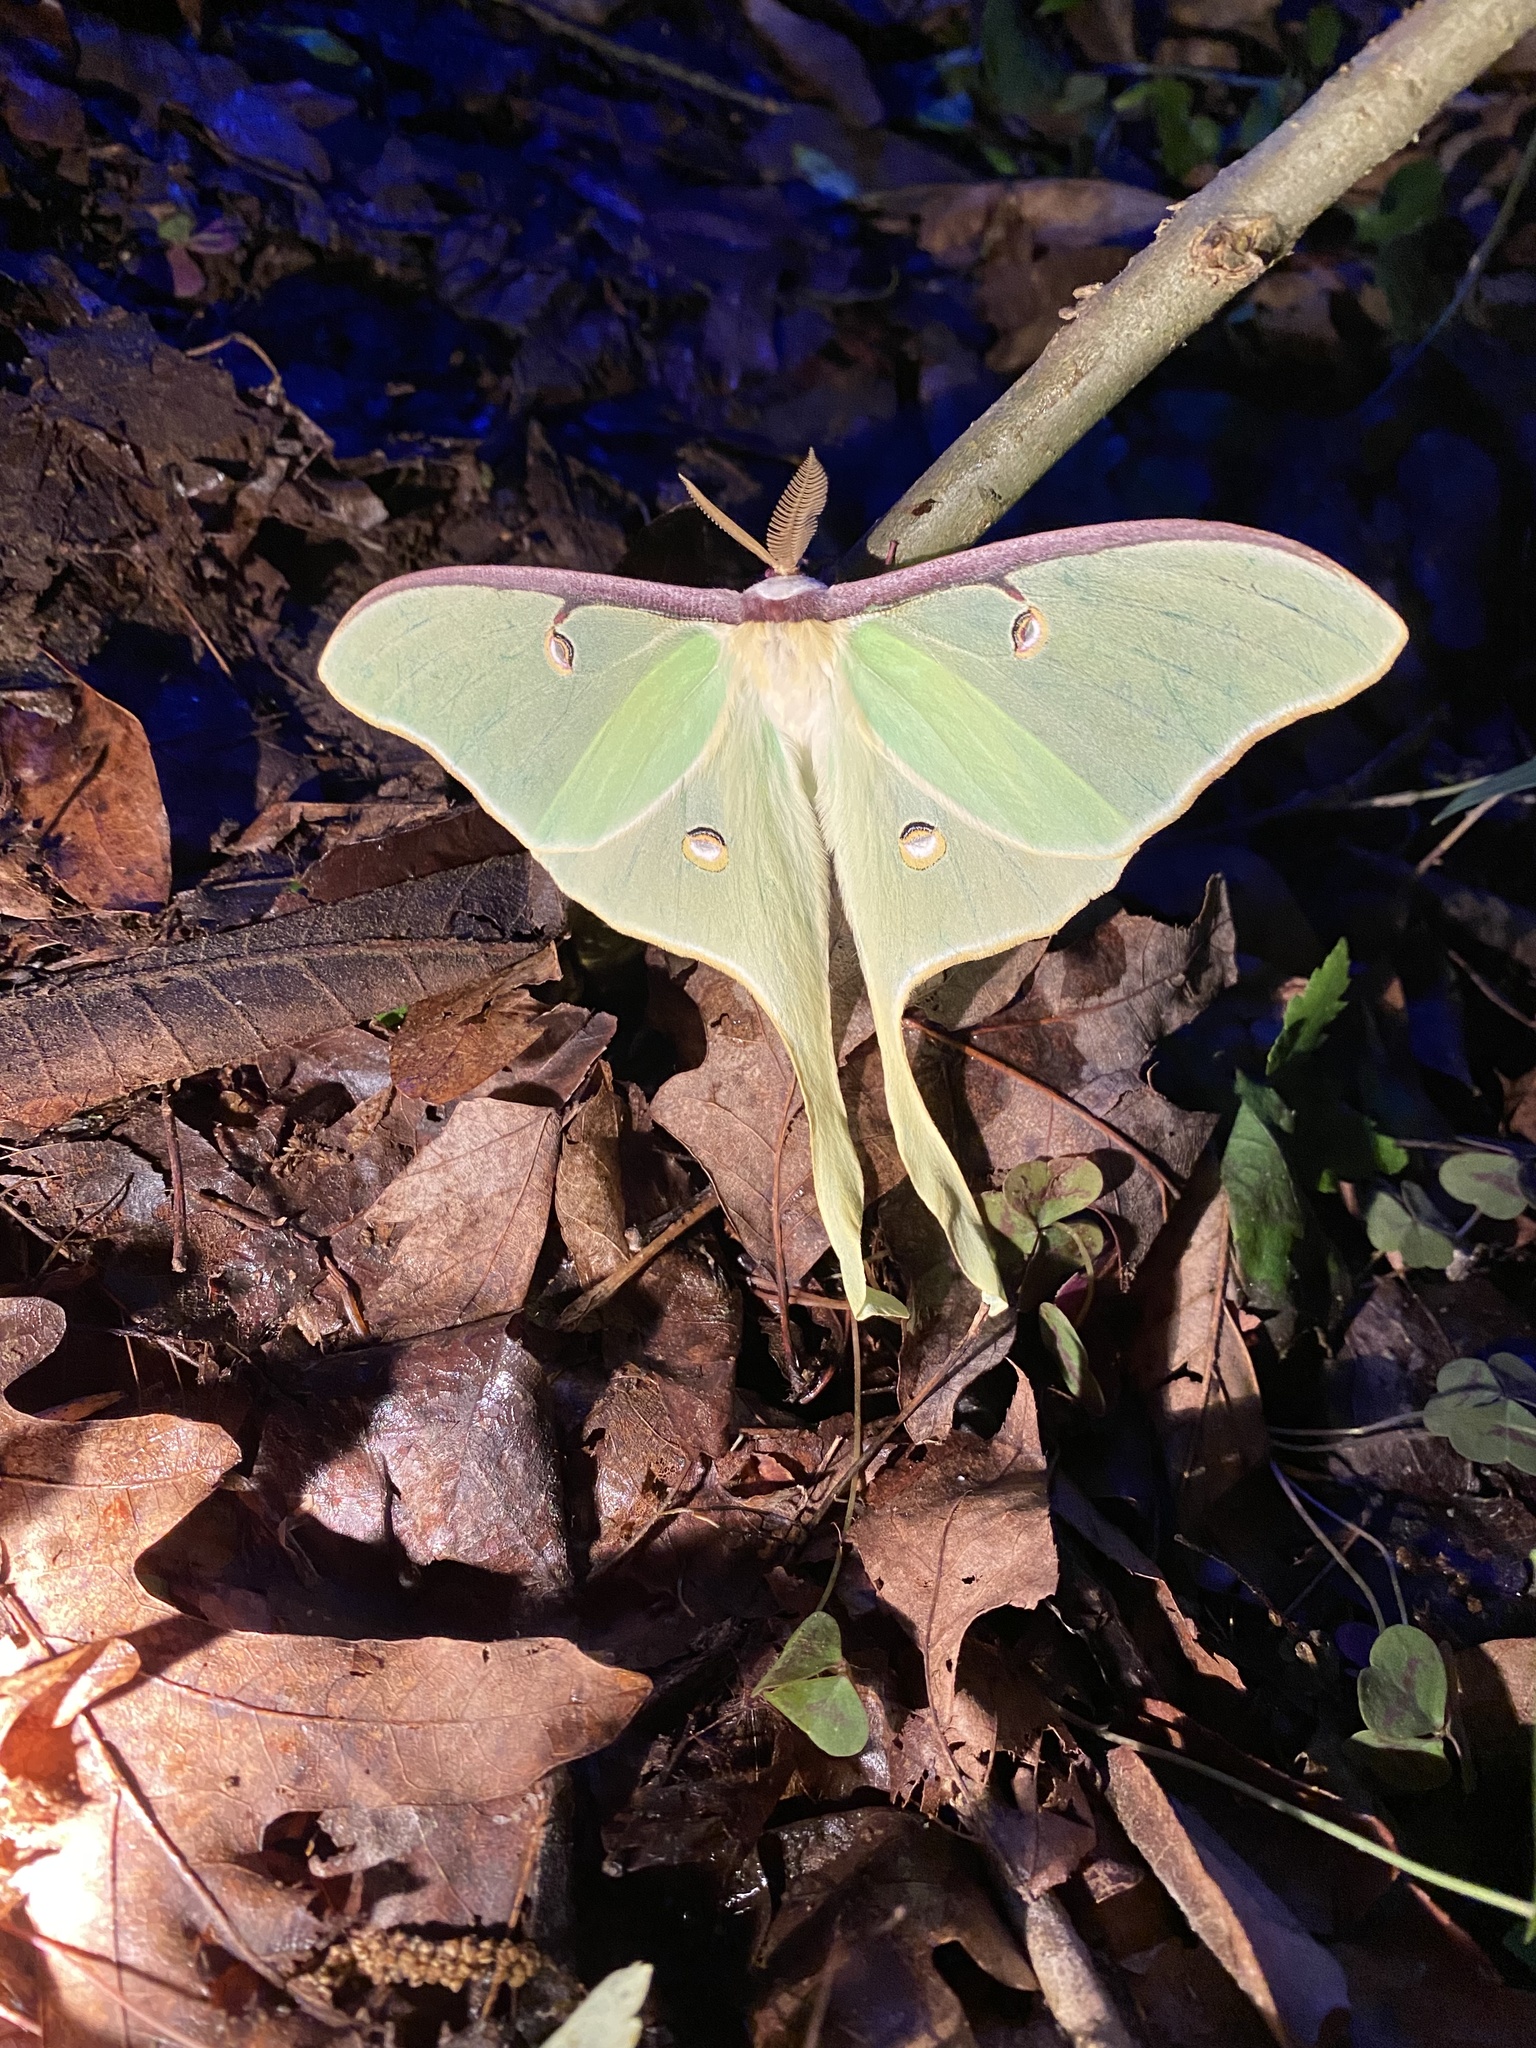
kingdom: Animalia
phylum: Arthropoda
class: Insecta
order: Lepidoptera
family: Saturniidae
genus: Actias
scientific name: Actias luna
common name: Luna moth
